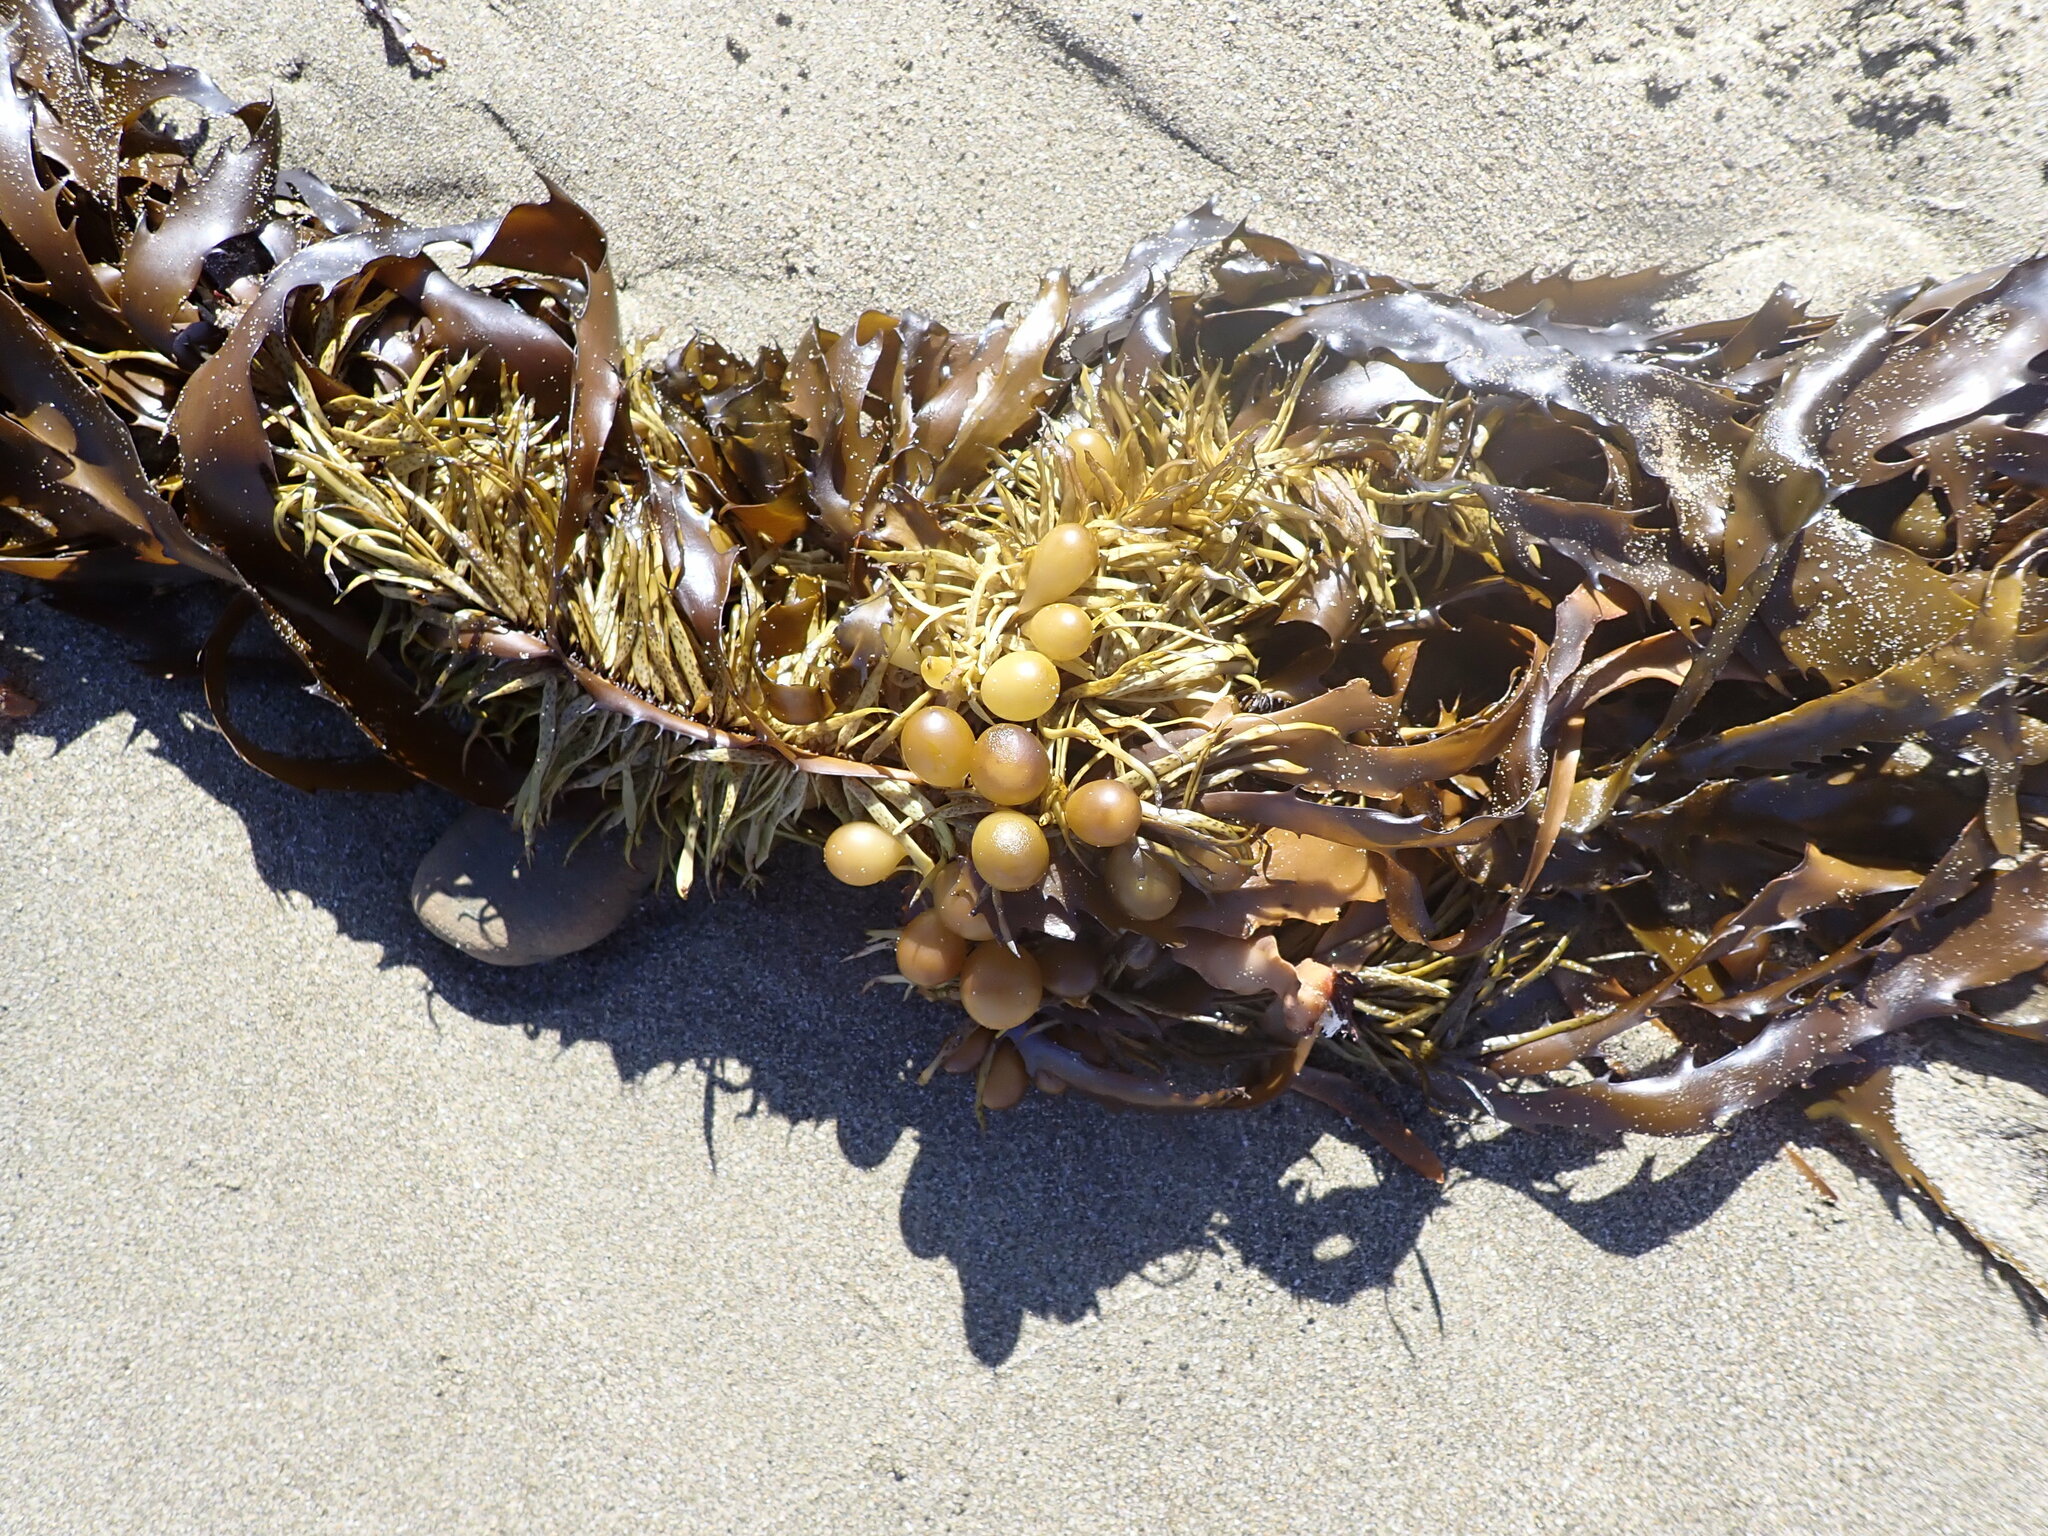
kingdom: Chromista
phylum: Ochrophyta
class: Phaeophyceae
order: Fucales
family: Seirococcaceae
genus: Marginariella
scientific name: Marginariella urvilliana
